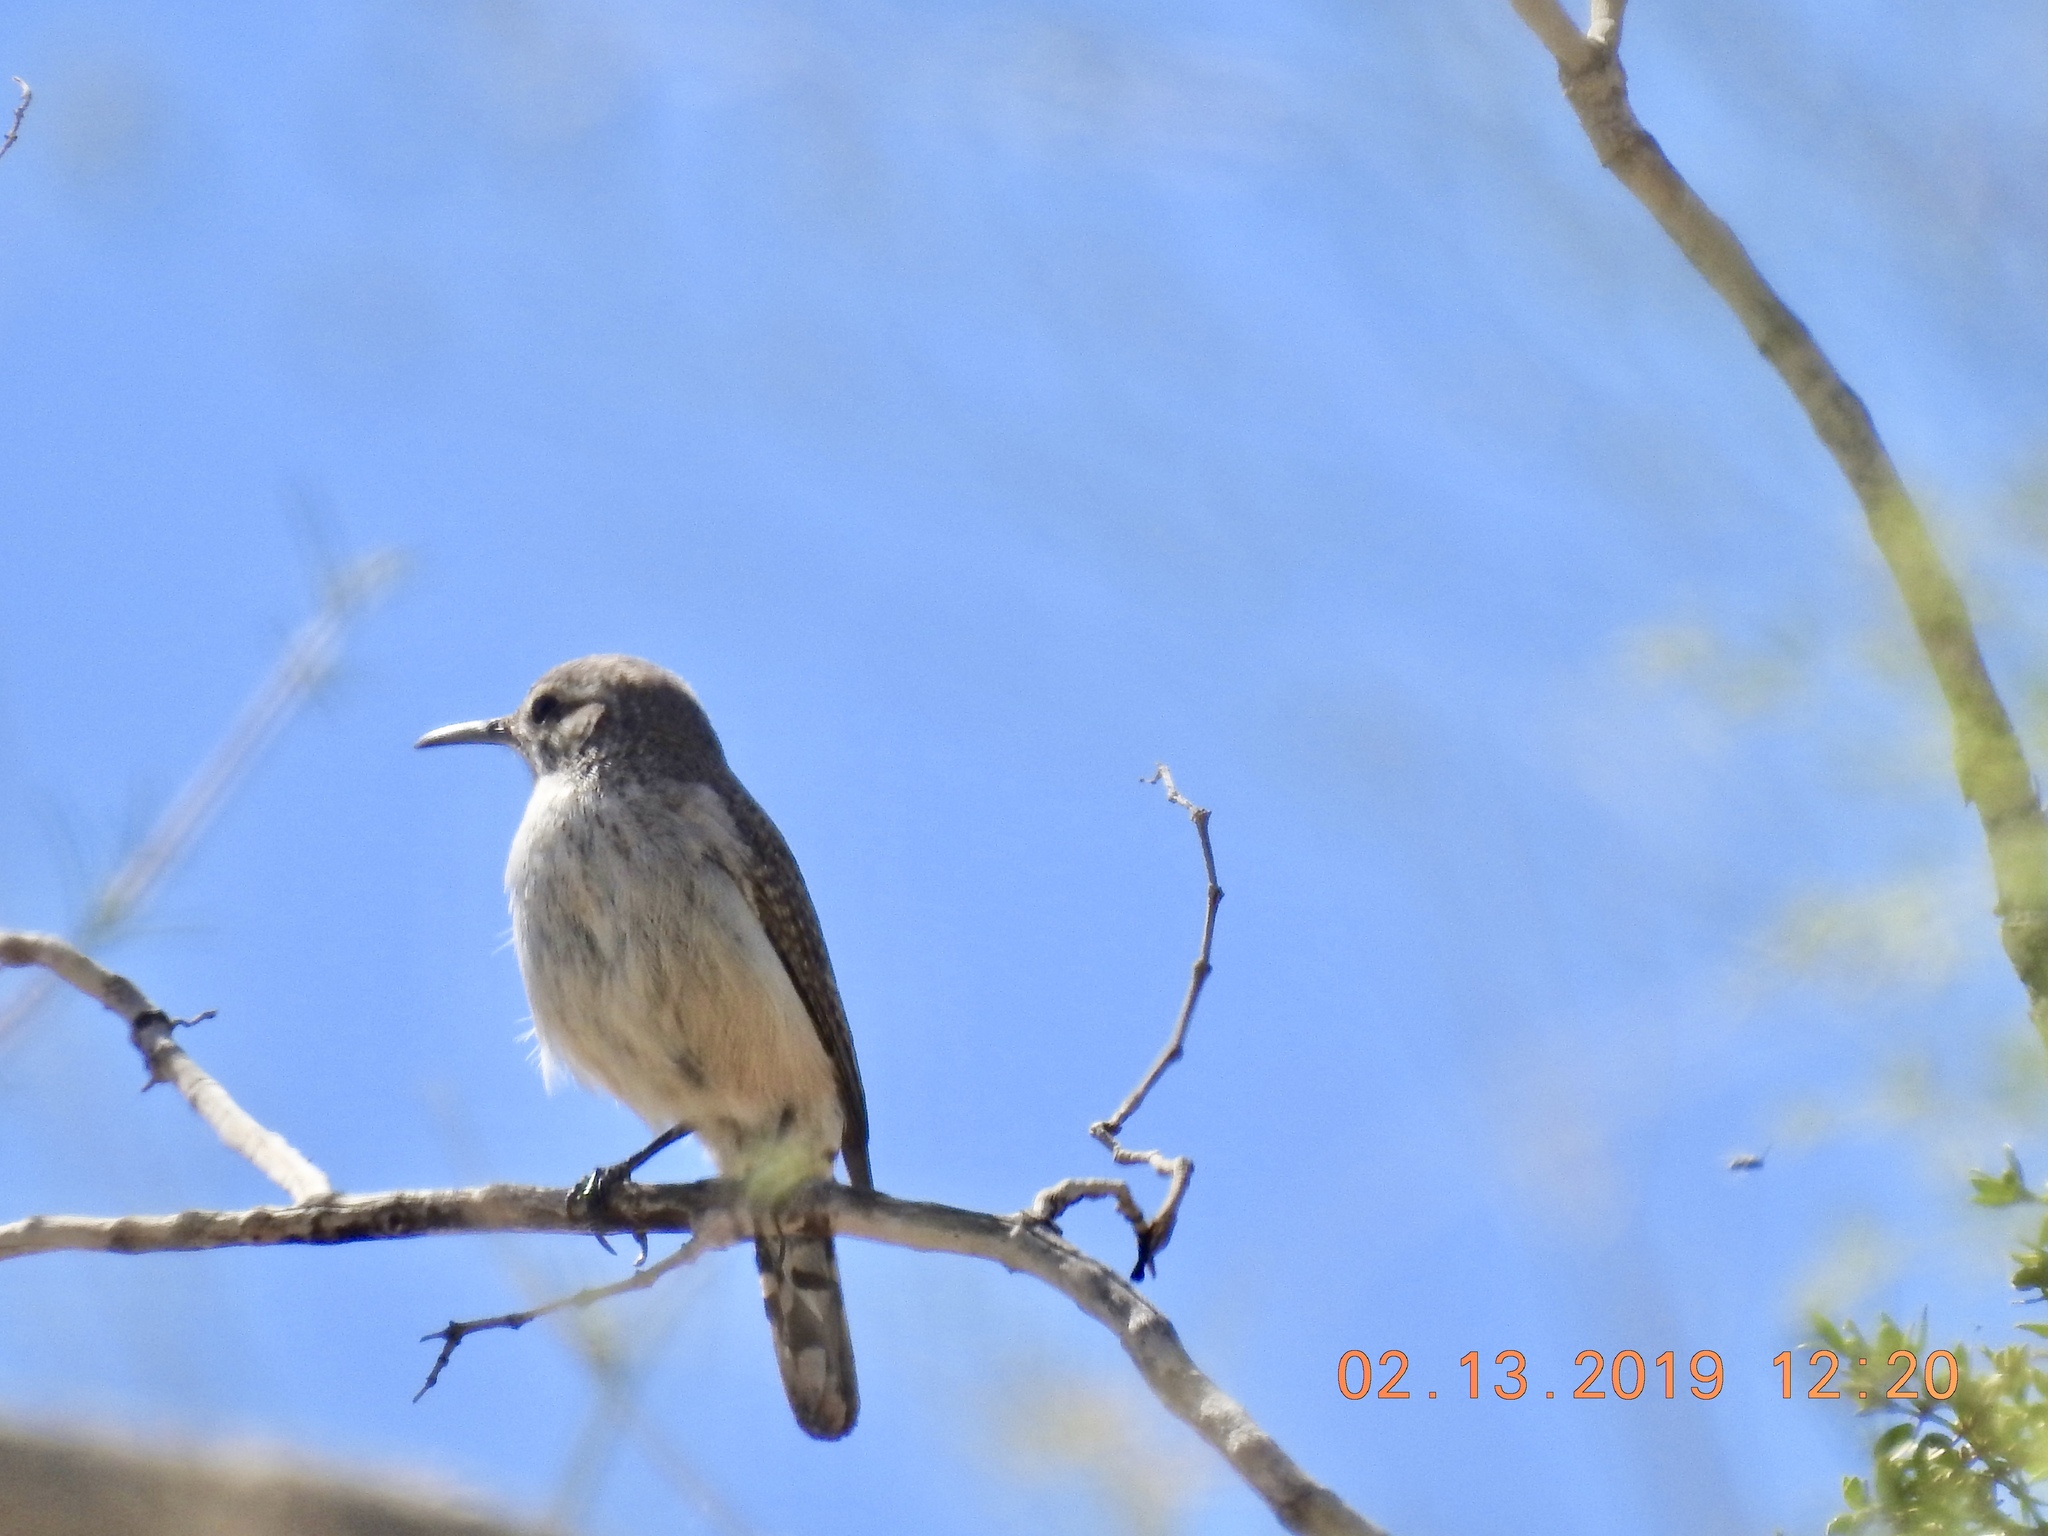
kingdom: Animalia
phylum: Chordata
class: Aves
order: Passeriformes
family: Troglodytidae
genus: Salpinctes
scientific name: Salpinctes obsoletus
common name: Rock wren
